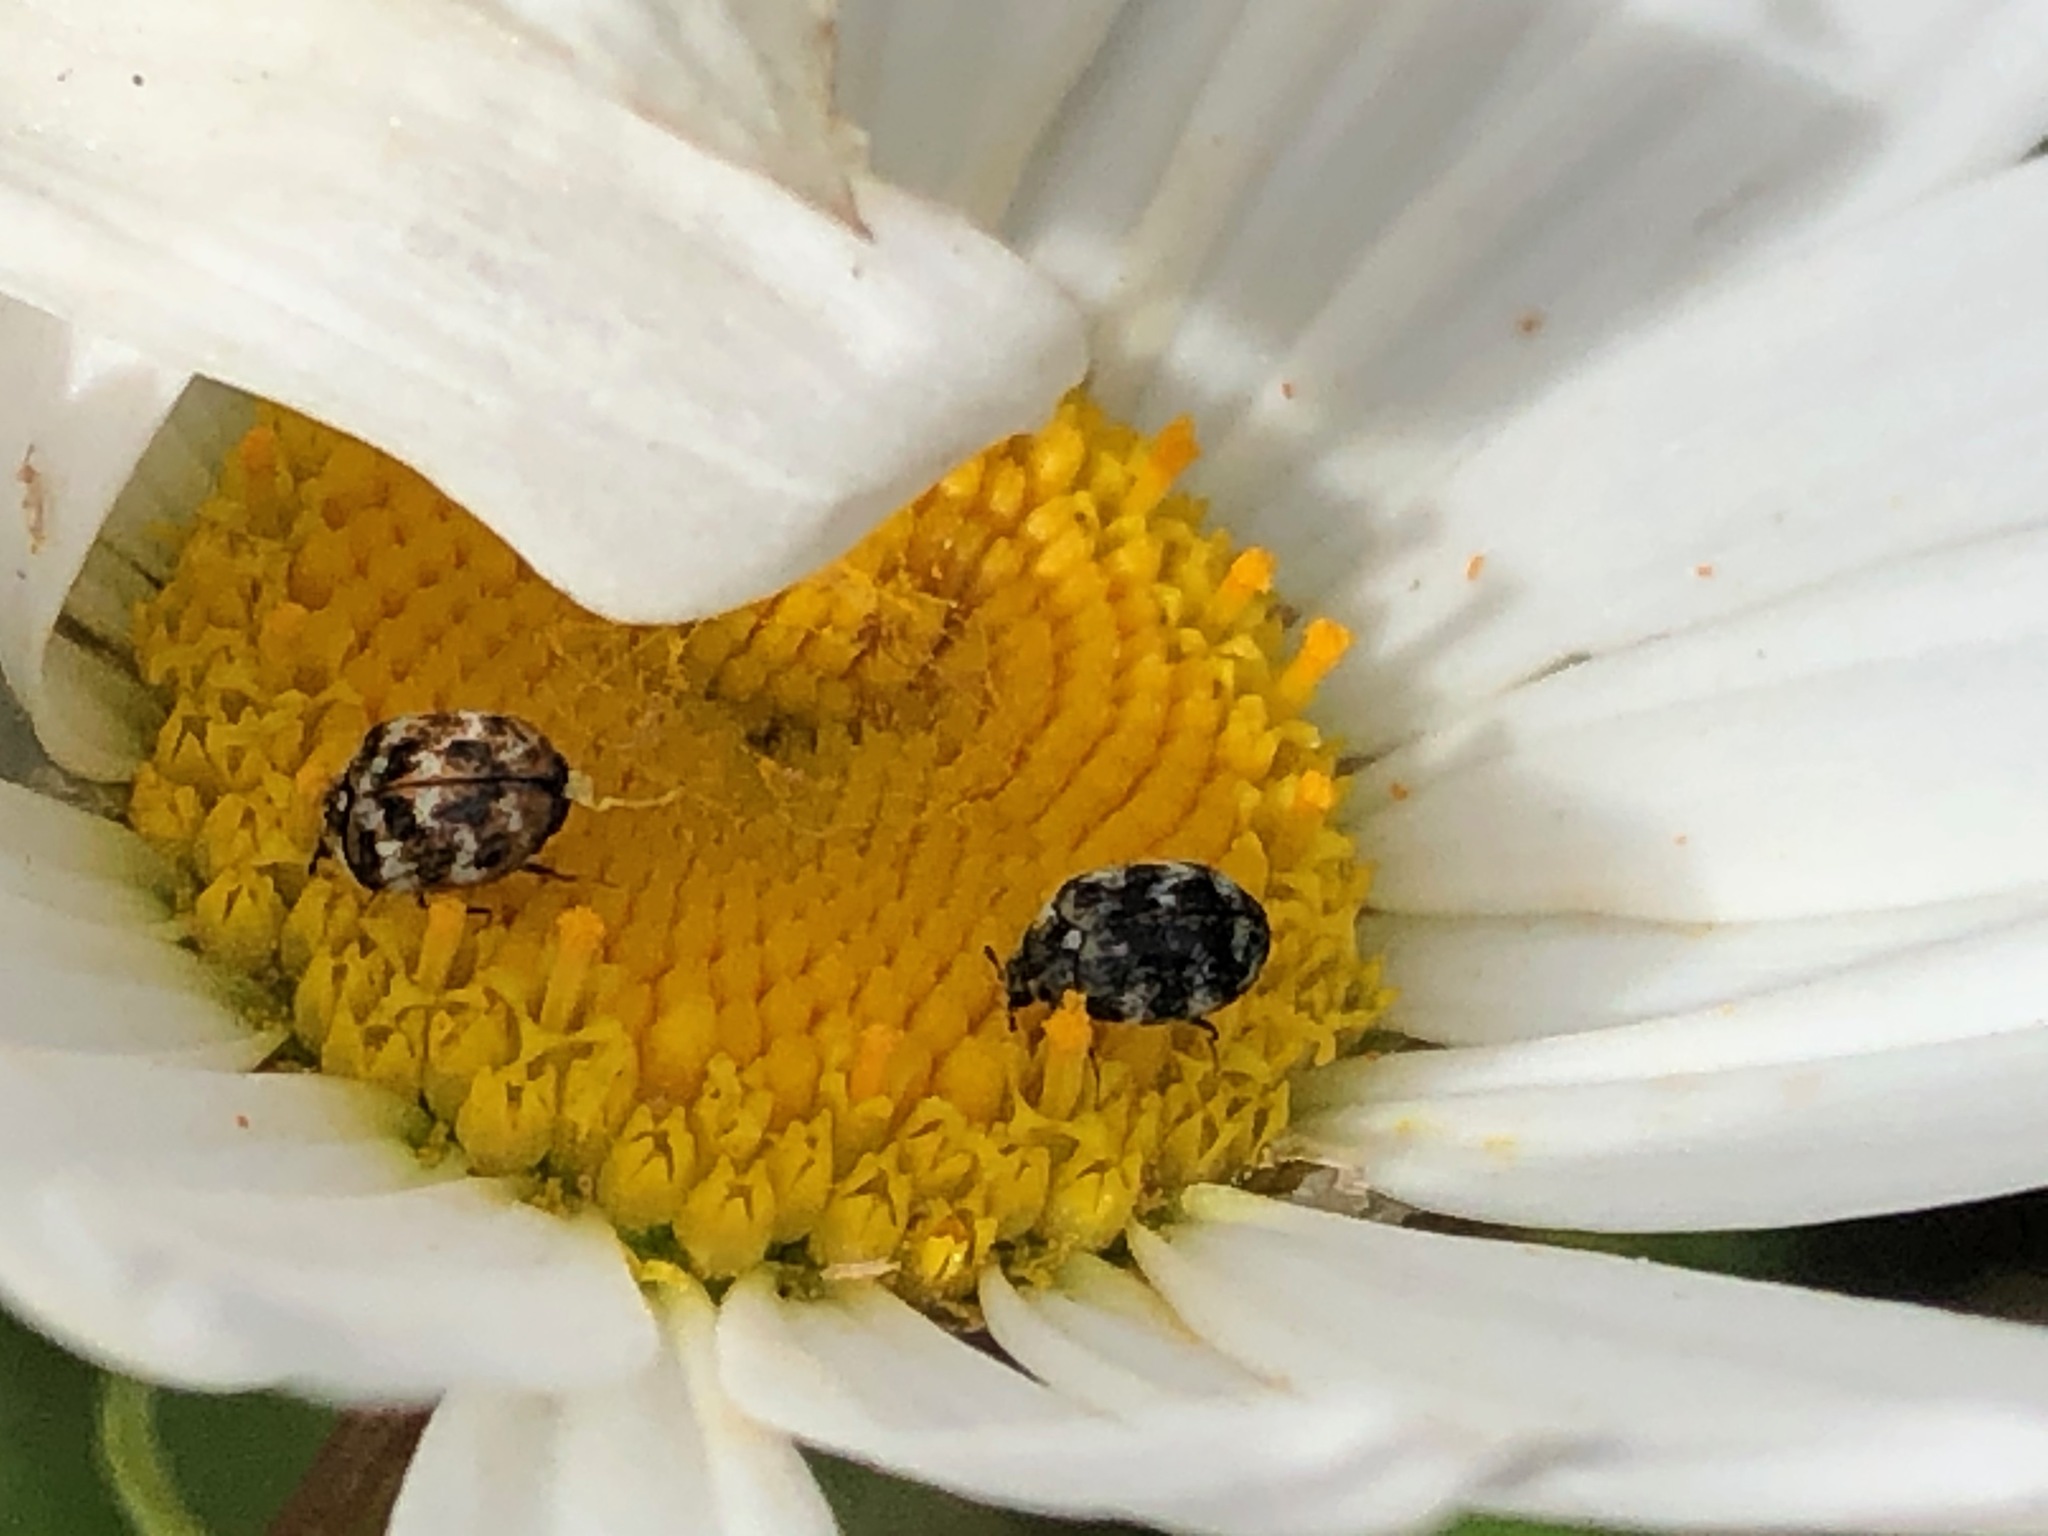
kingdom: Animalia
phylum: Arthropoda
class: Insecta
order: Coleoptera
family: Dermestidae
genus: Anthrenus
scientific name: Anthrenus verbasci
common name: Varied carpet beetle
